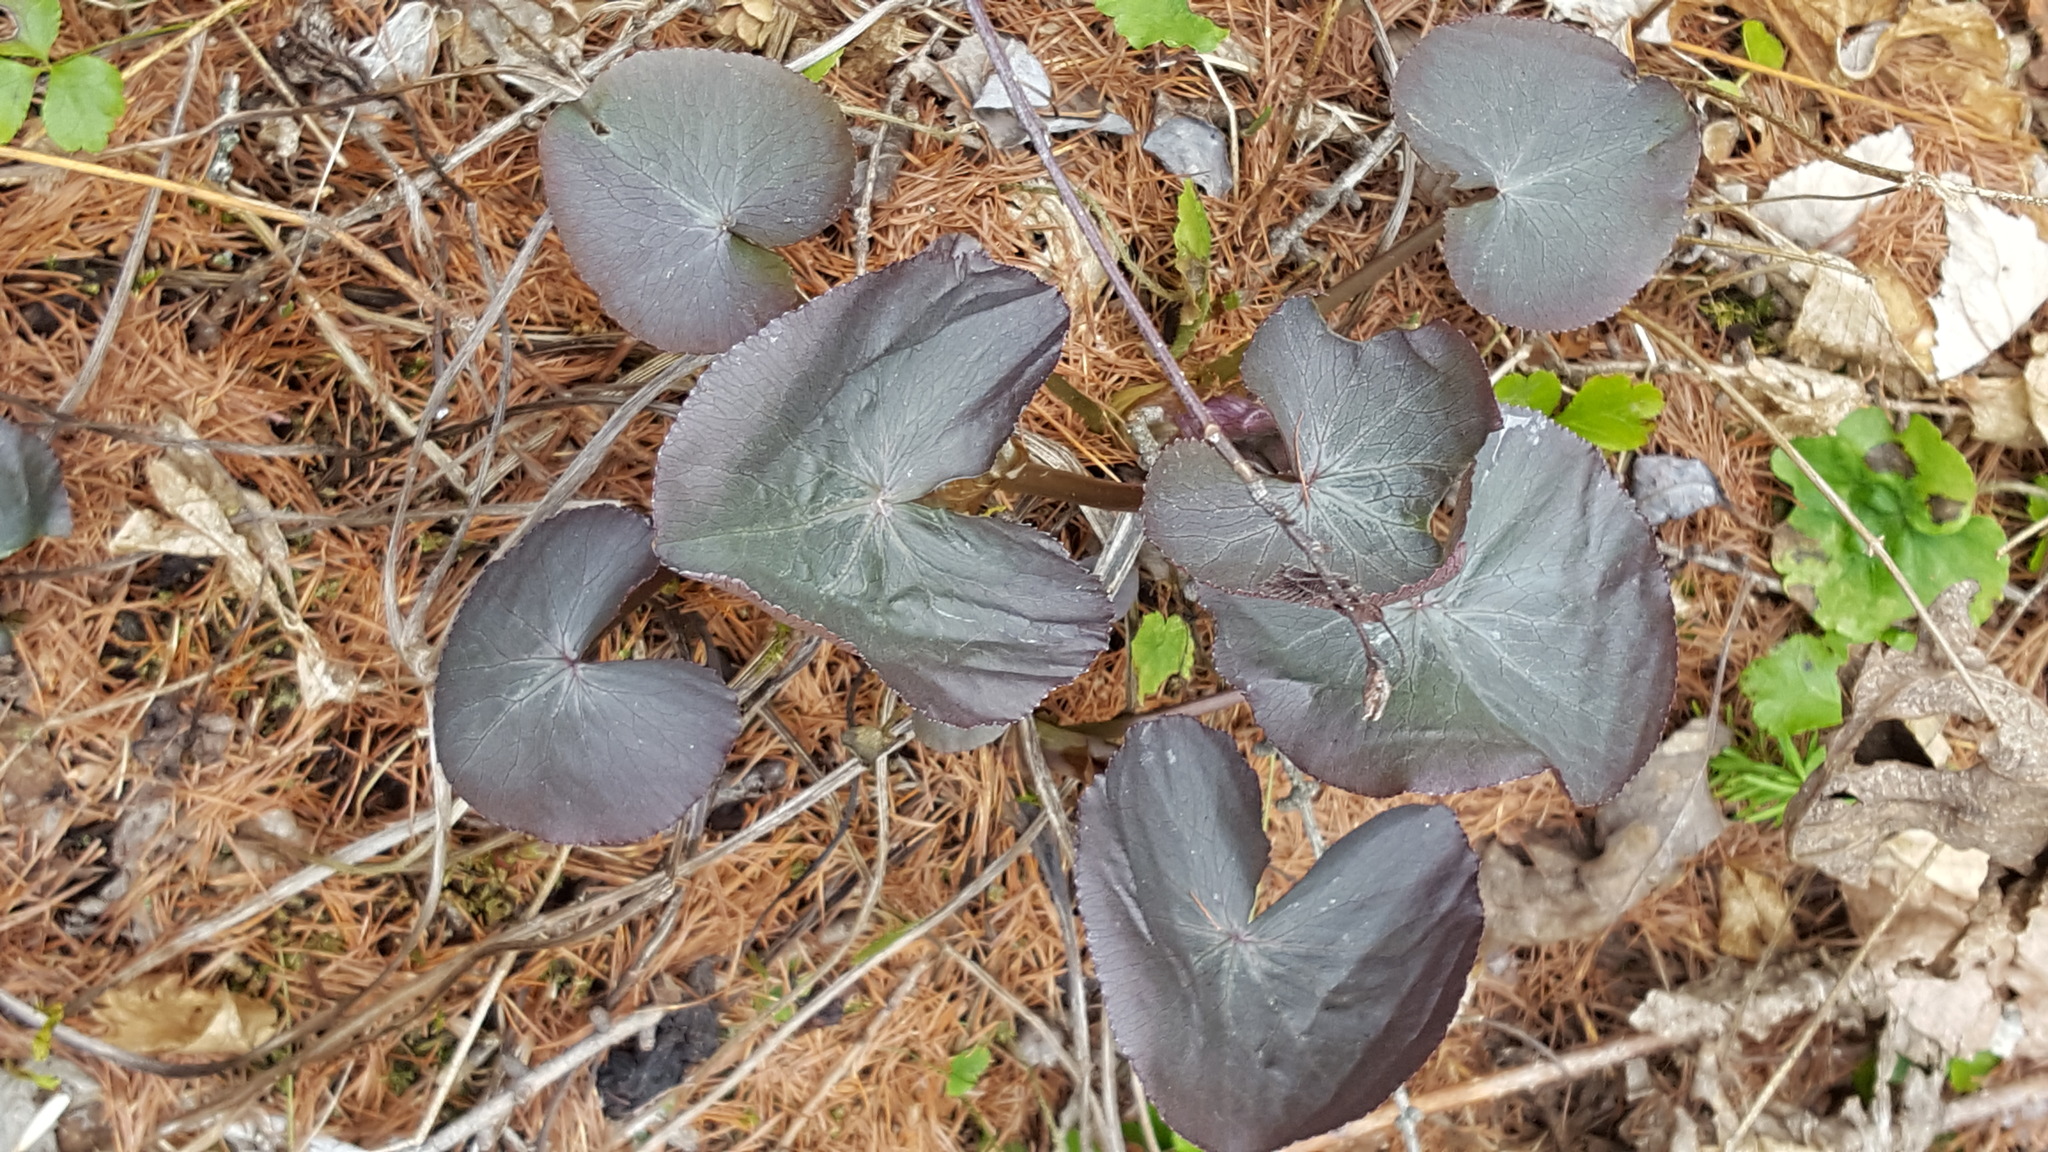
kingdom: Plantae
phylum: Tracheophyta
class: Magnoliopsida
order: Ranunculales
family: Ranunculaceae
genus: Caltha
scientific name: Caltha palustris
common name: Marsh marigold
